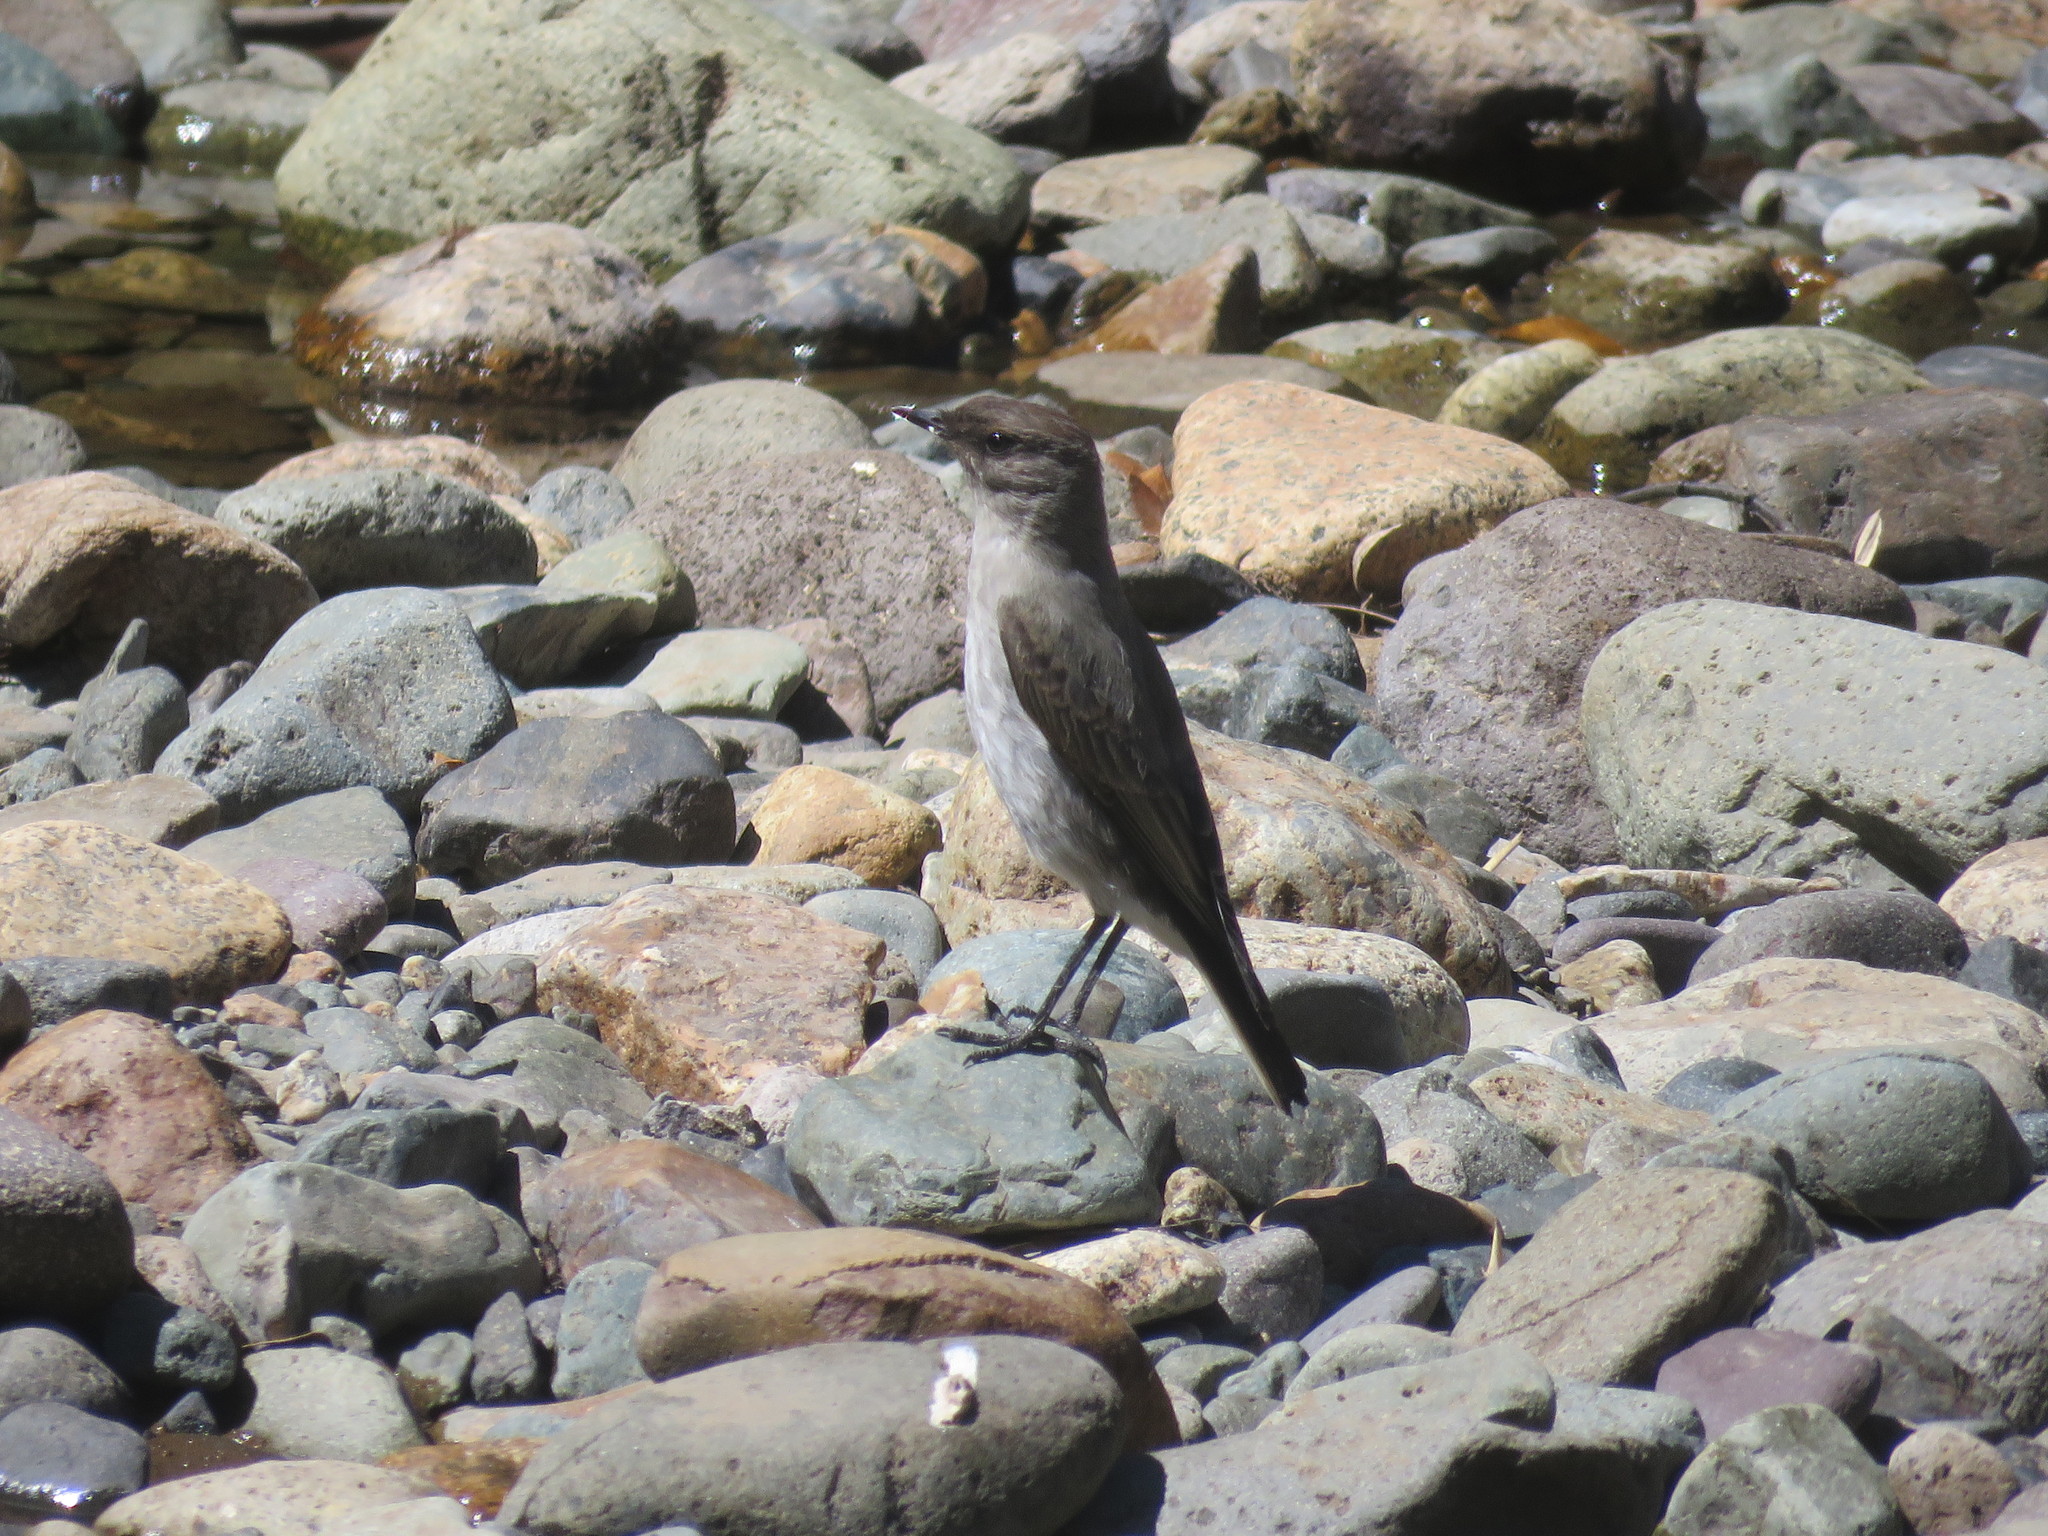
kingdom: Animalia
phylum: Chordata
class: Aves
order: Passeriformes
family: Tyrannidae
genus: Muscisaxicola
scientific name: Muscisaxicola maclovianus
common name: Dark-faced ground tyrant
